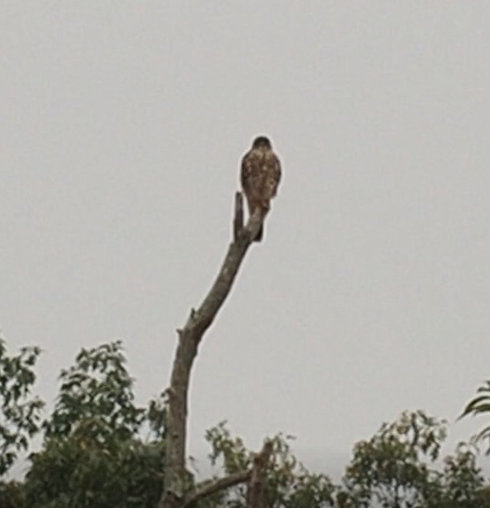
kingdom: Animalia
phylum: Chordata
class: Aves
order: Falconiformes
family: Falconidae
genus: Falco
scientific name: Falco columbarius
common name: Merlin
